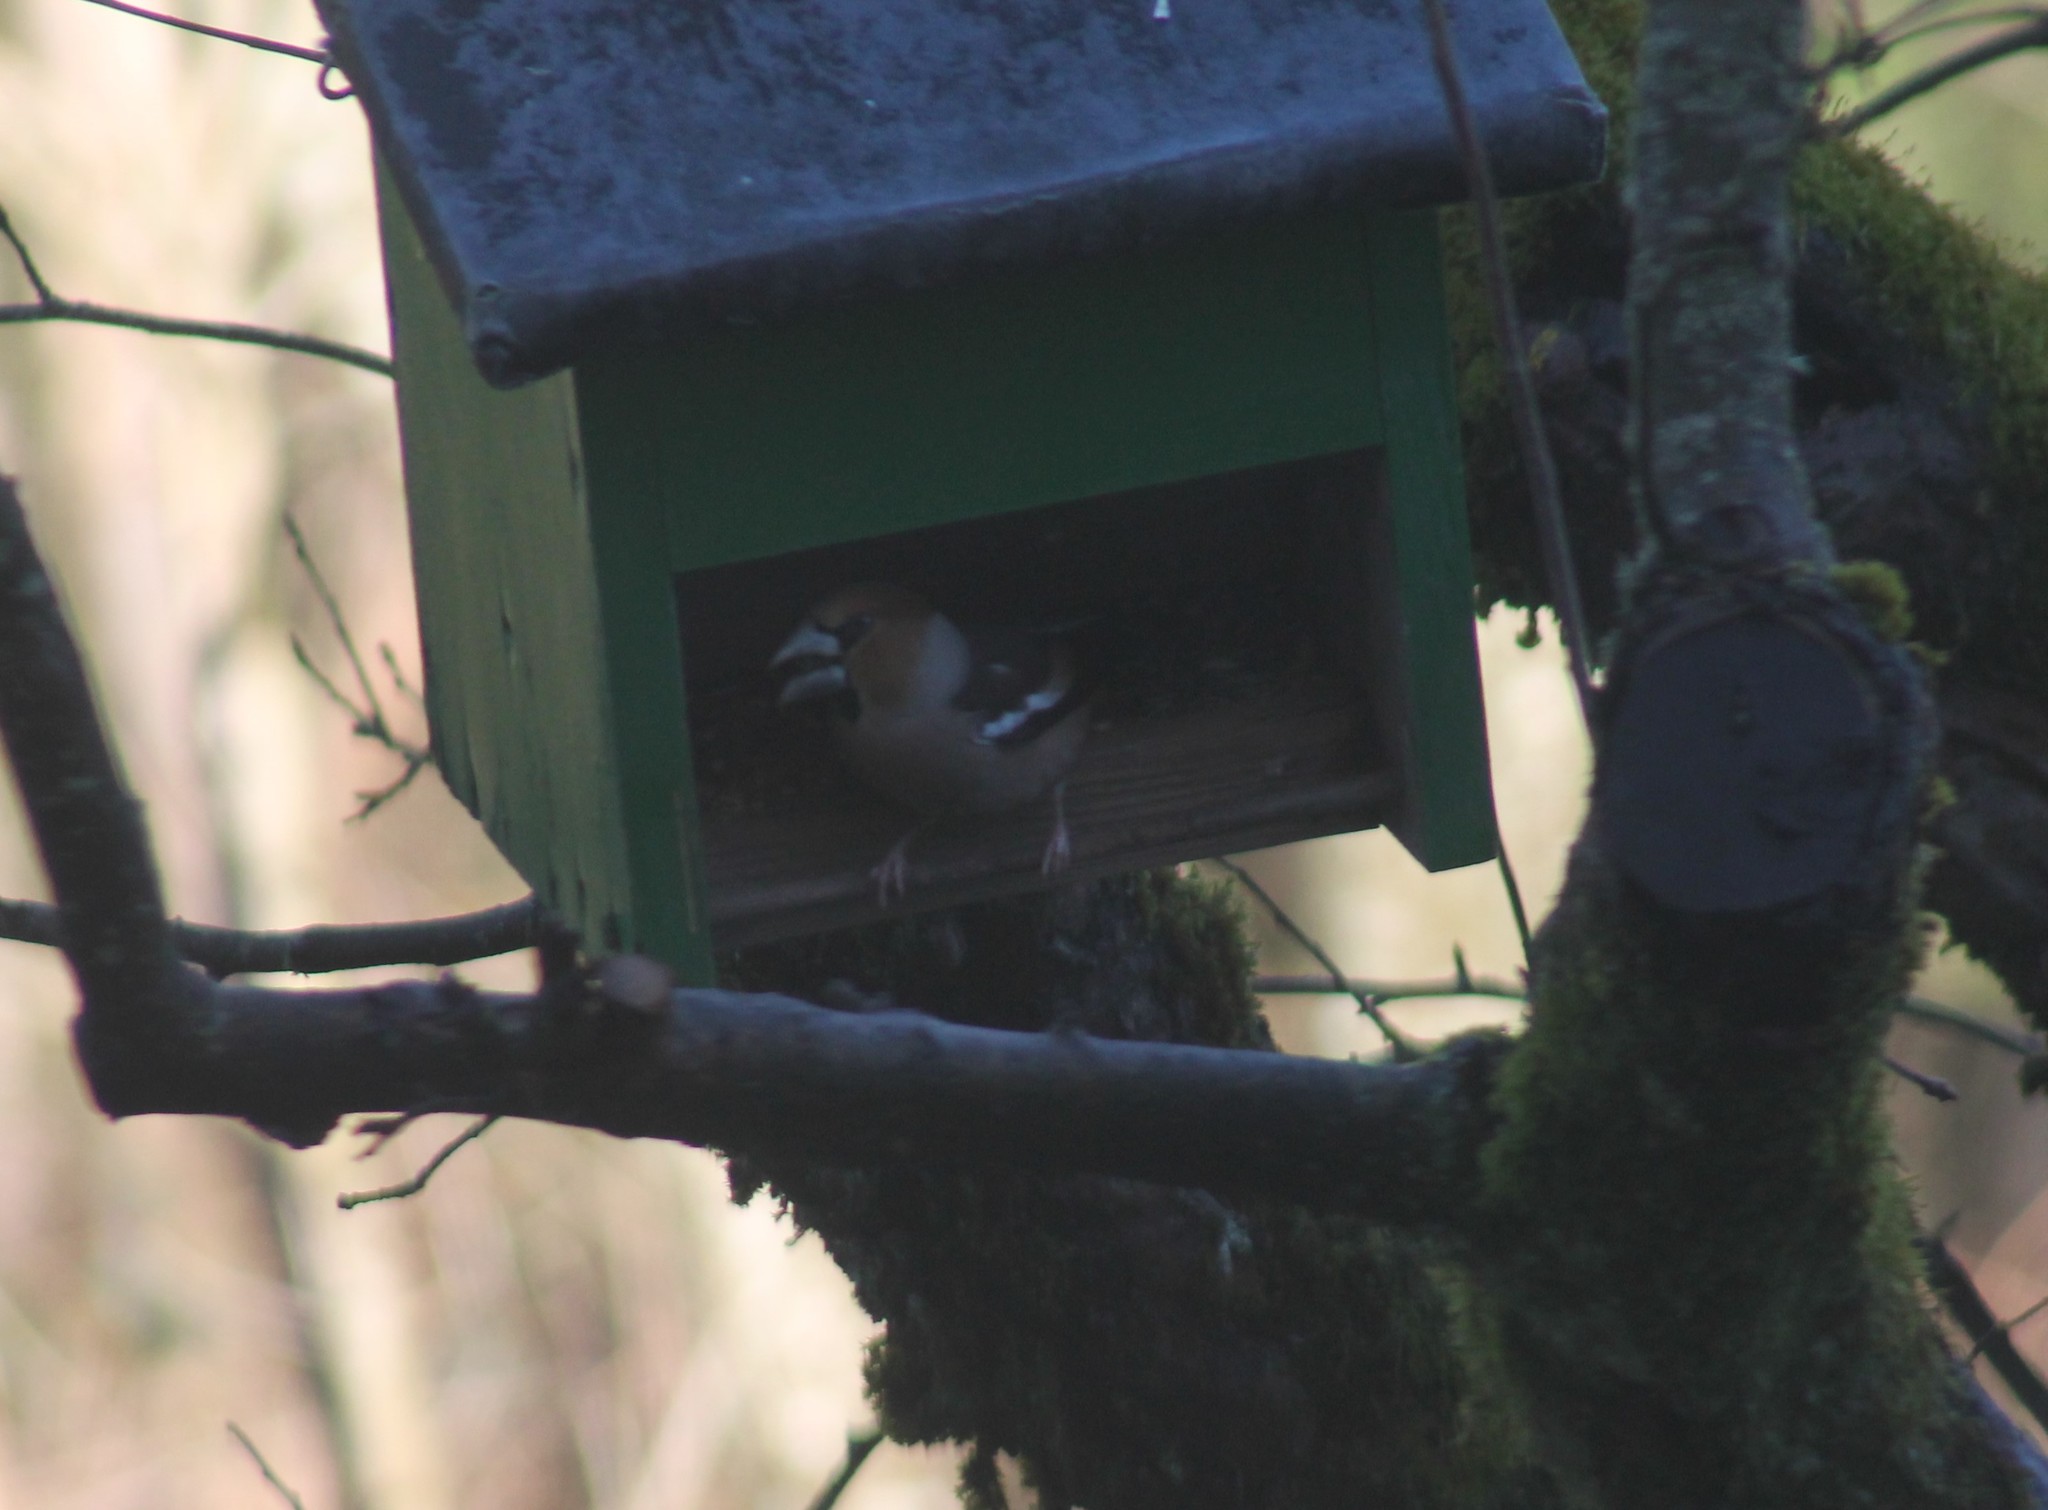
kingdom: Animalia
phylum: Chordata
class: Aves
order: Passeriformes
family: Fringillidae
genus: Coccothraustes
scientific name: Coccothraustes coccothraustes
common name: Hawfinch
